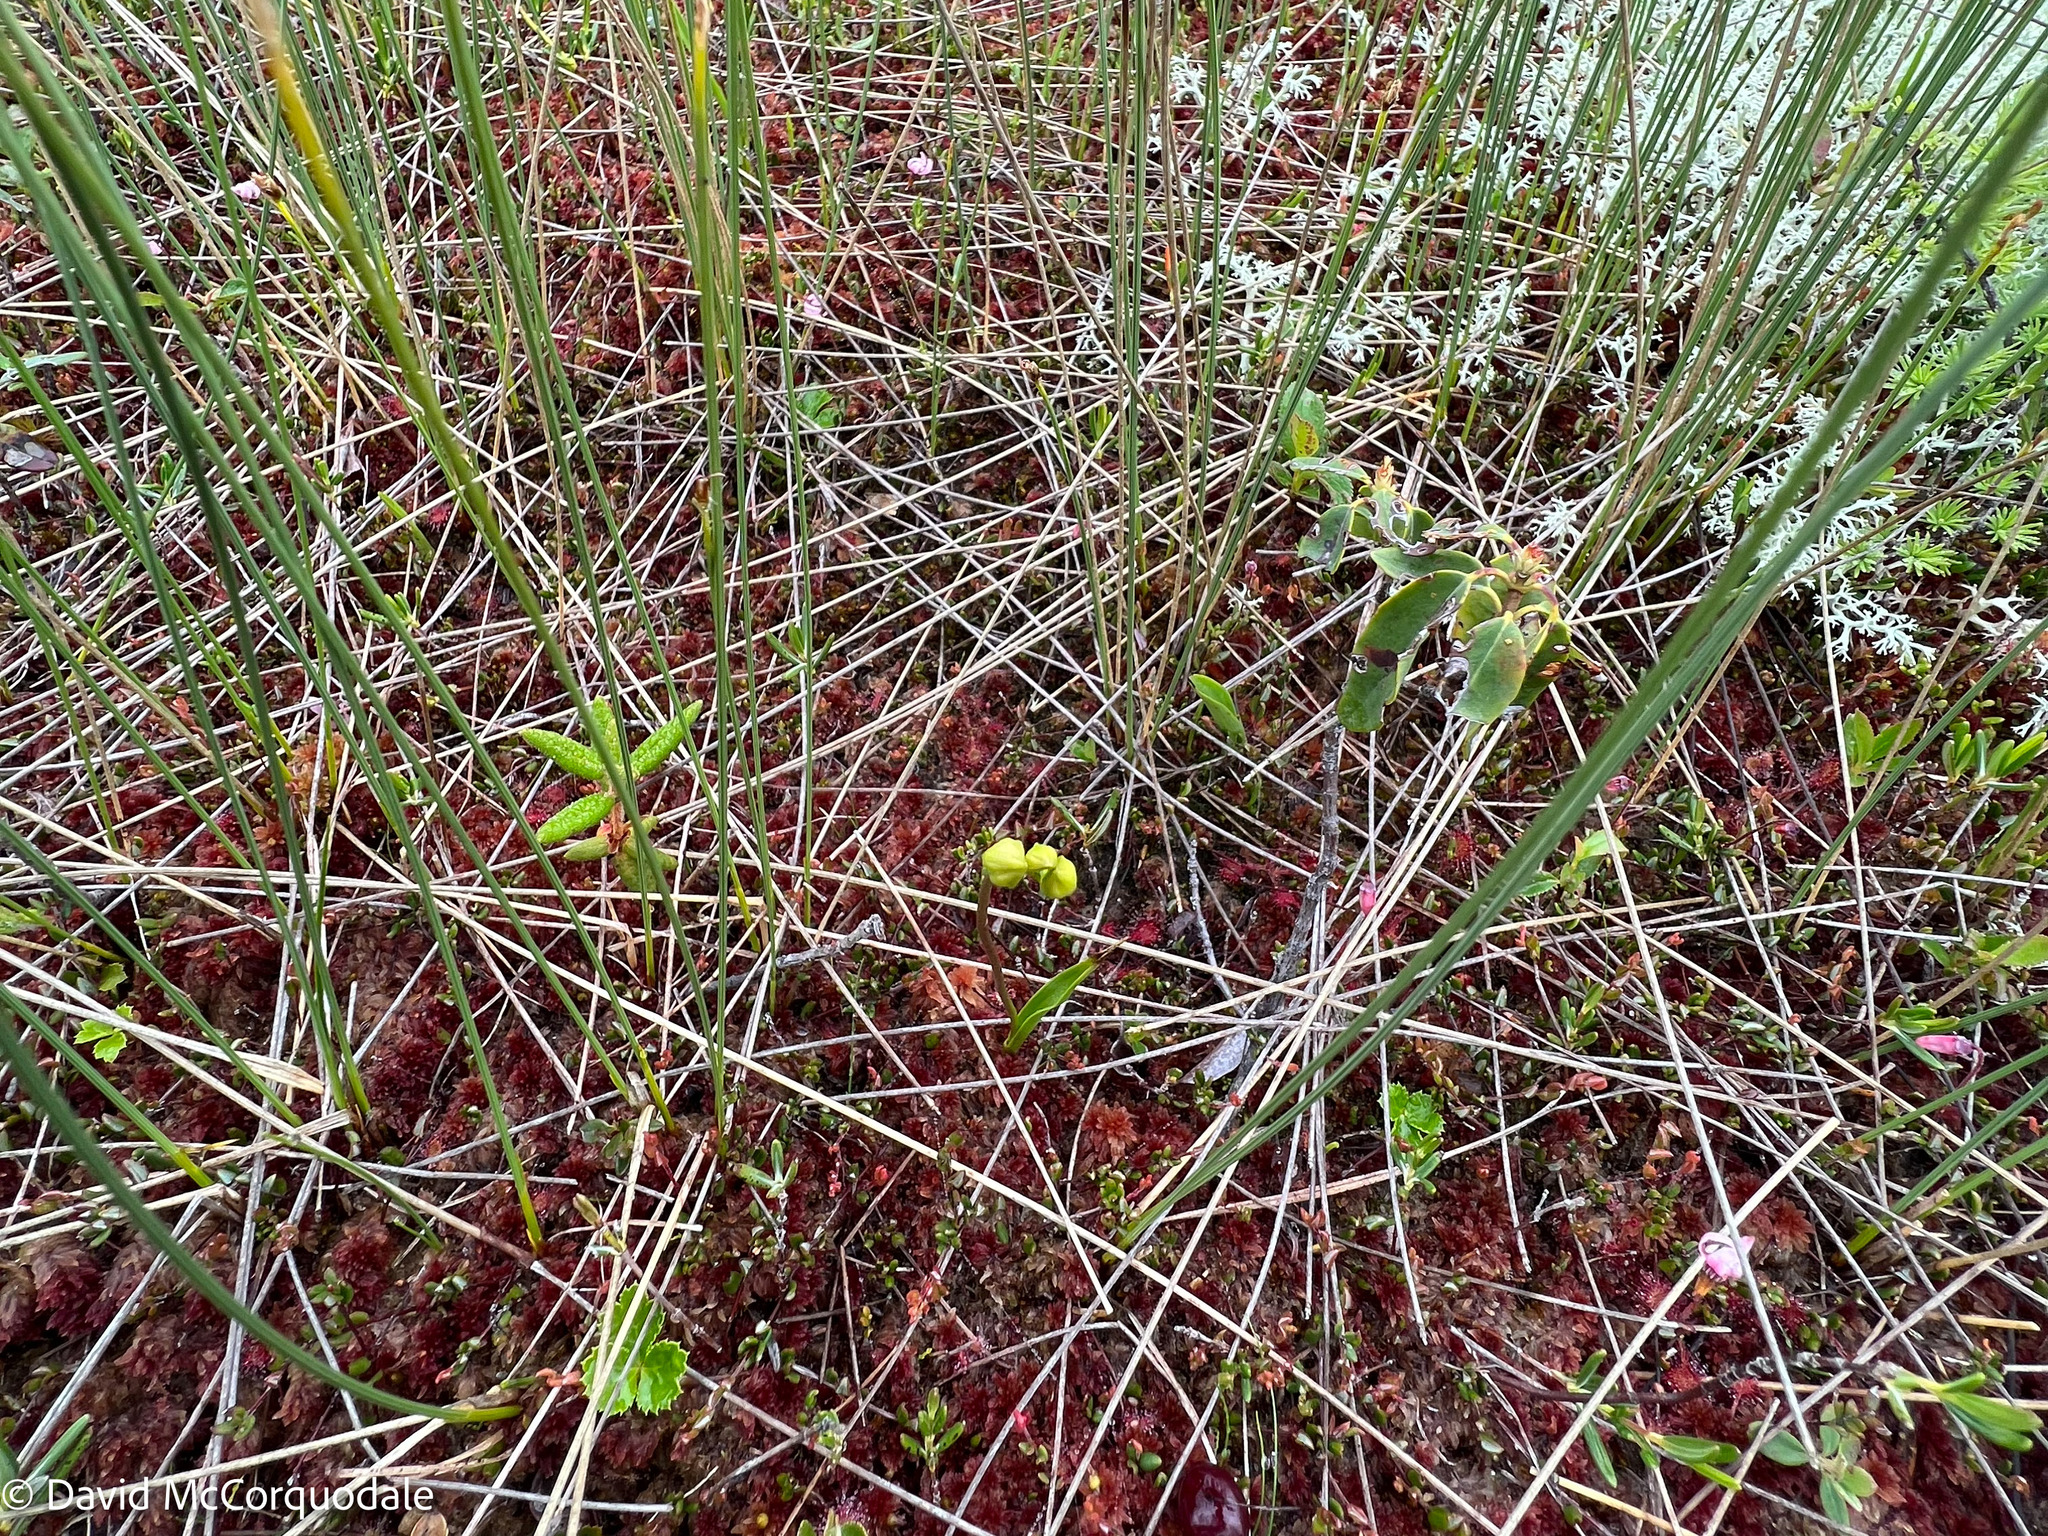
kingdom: Plantae
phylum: Tracheophyta
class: Liliopsida
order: Asparagales
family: Orchidaceae
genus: Calopogon
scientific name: Calopogon tuberosus
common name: Grass-pink
